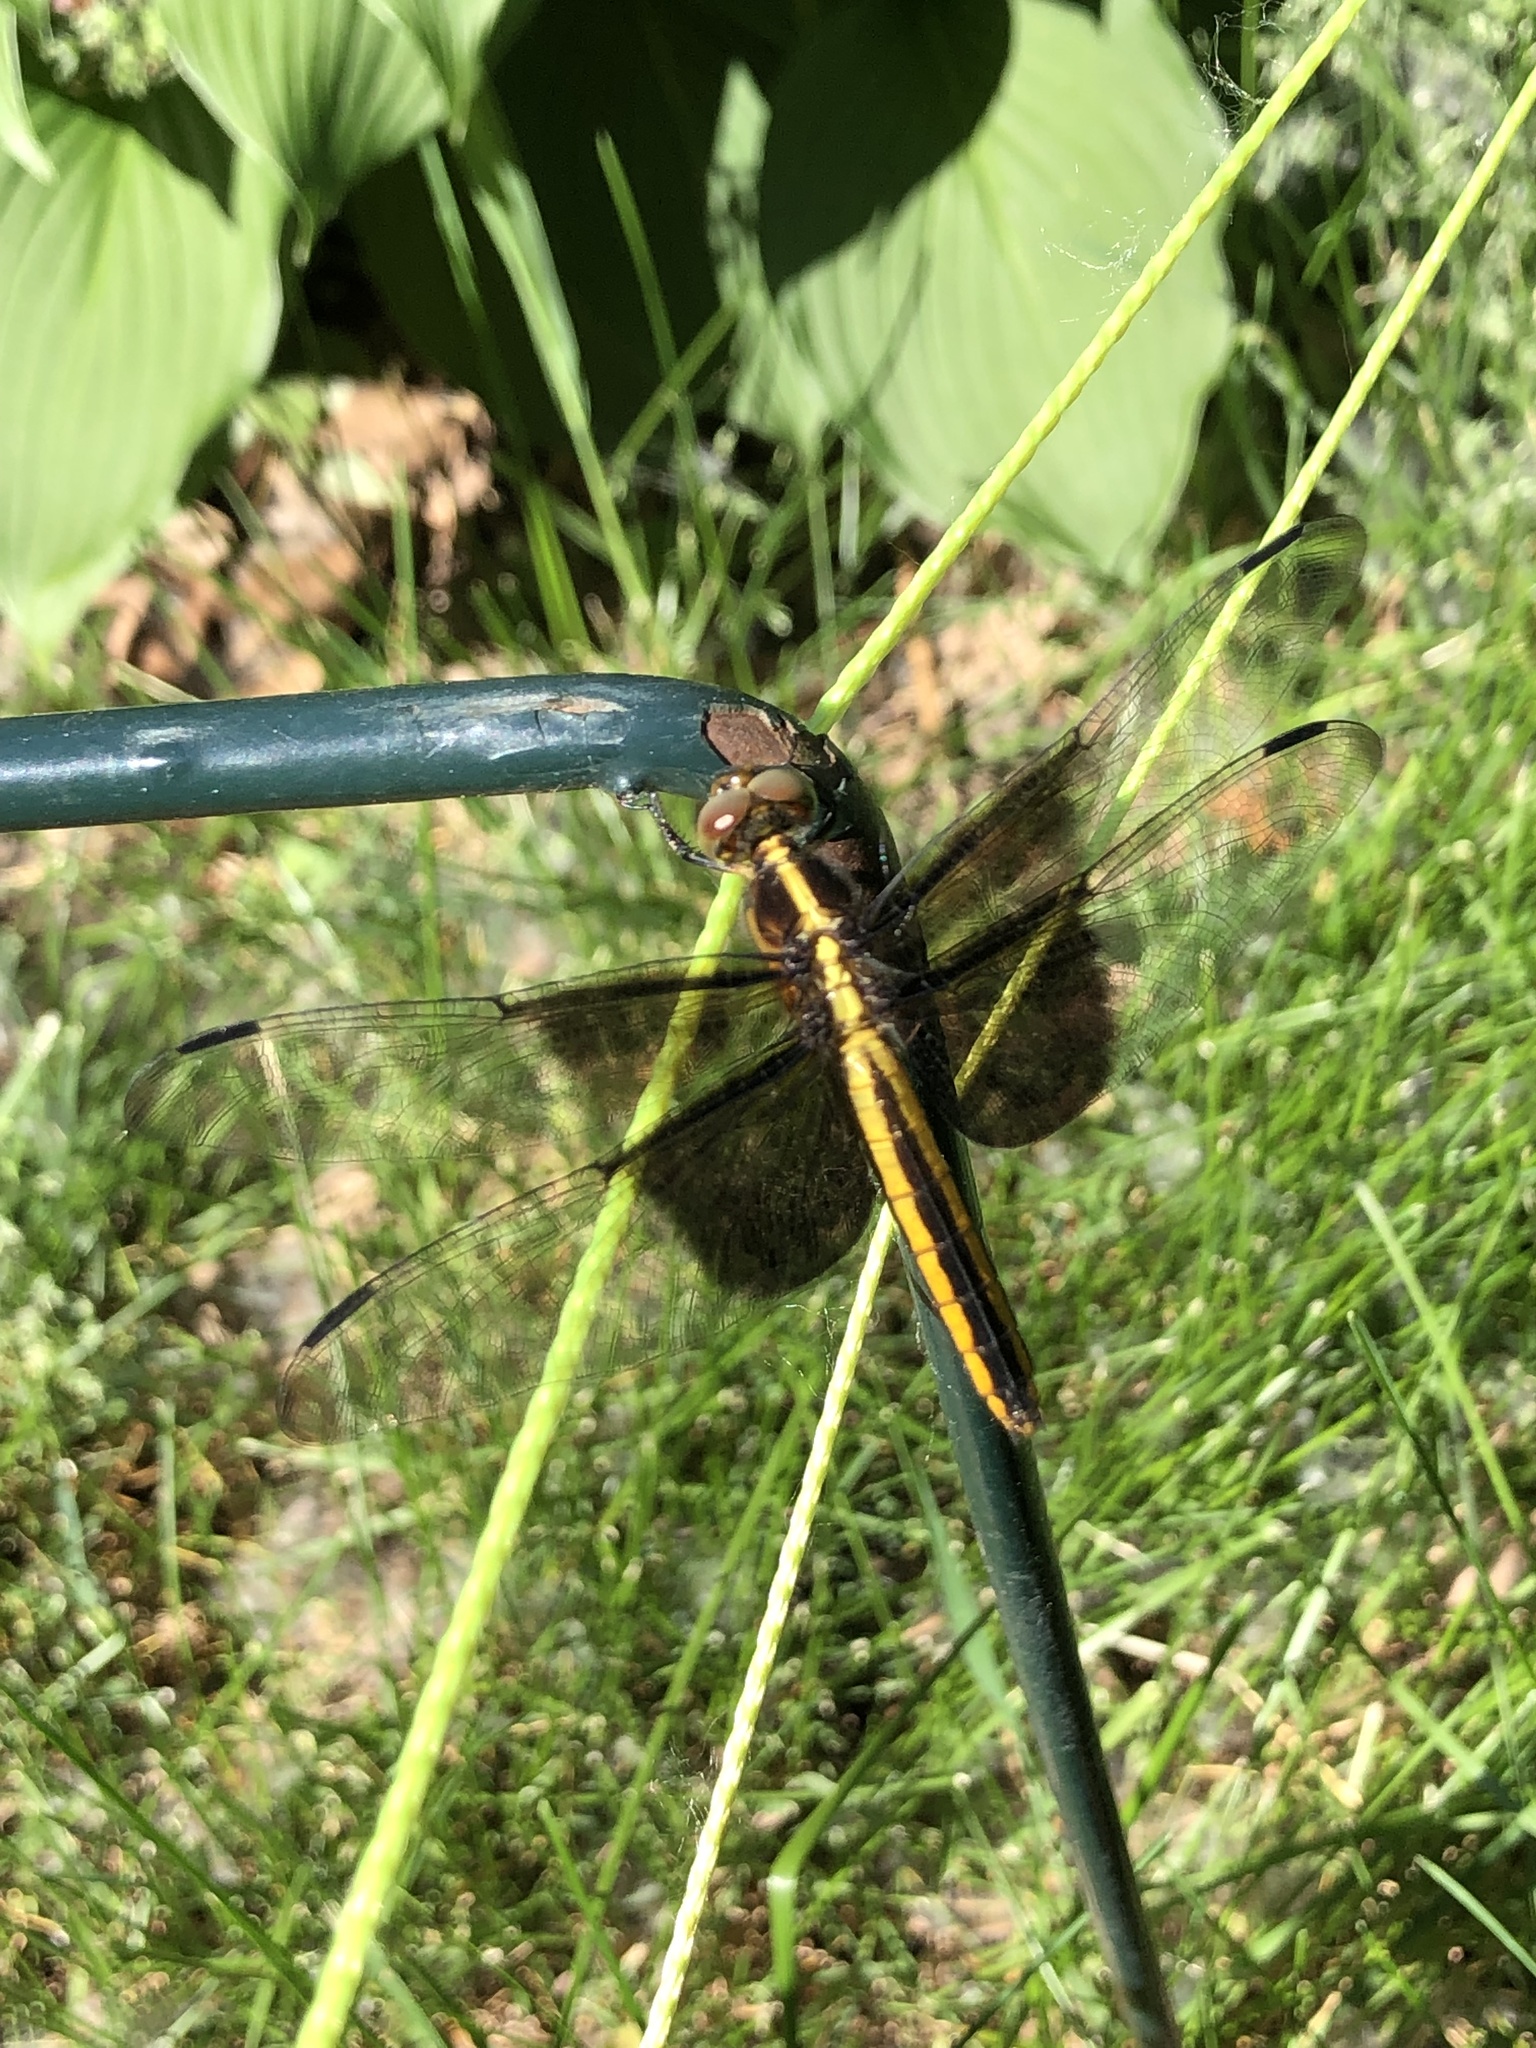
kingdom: Animalia
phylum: Arthropoda
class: Insecta
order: Odonata
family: Libellulidae
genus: Libellula
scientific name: Libellula luctuosa
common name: Widow skimmer
